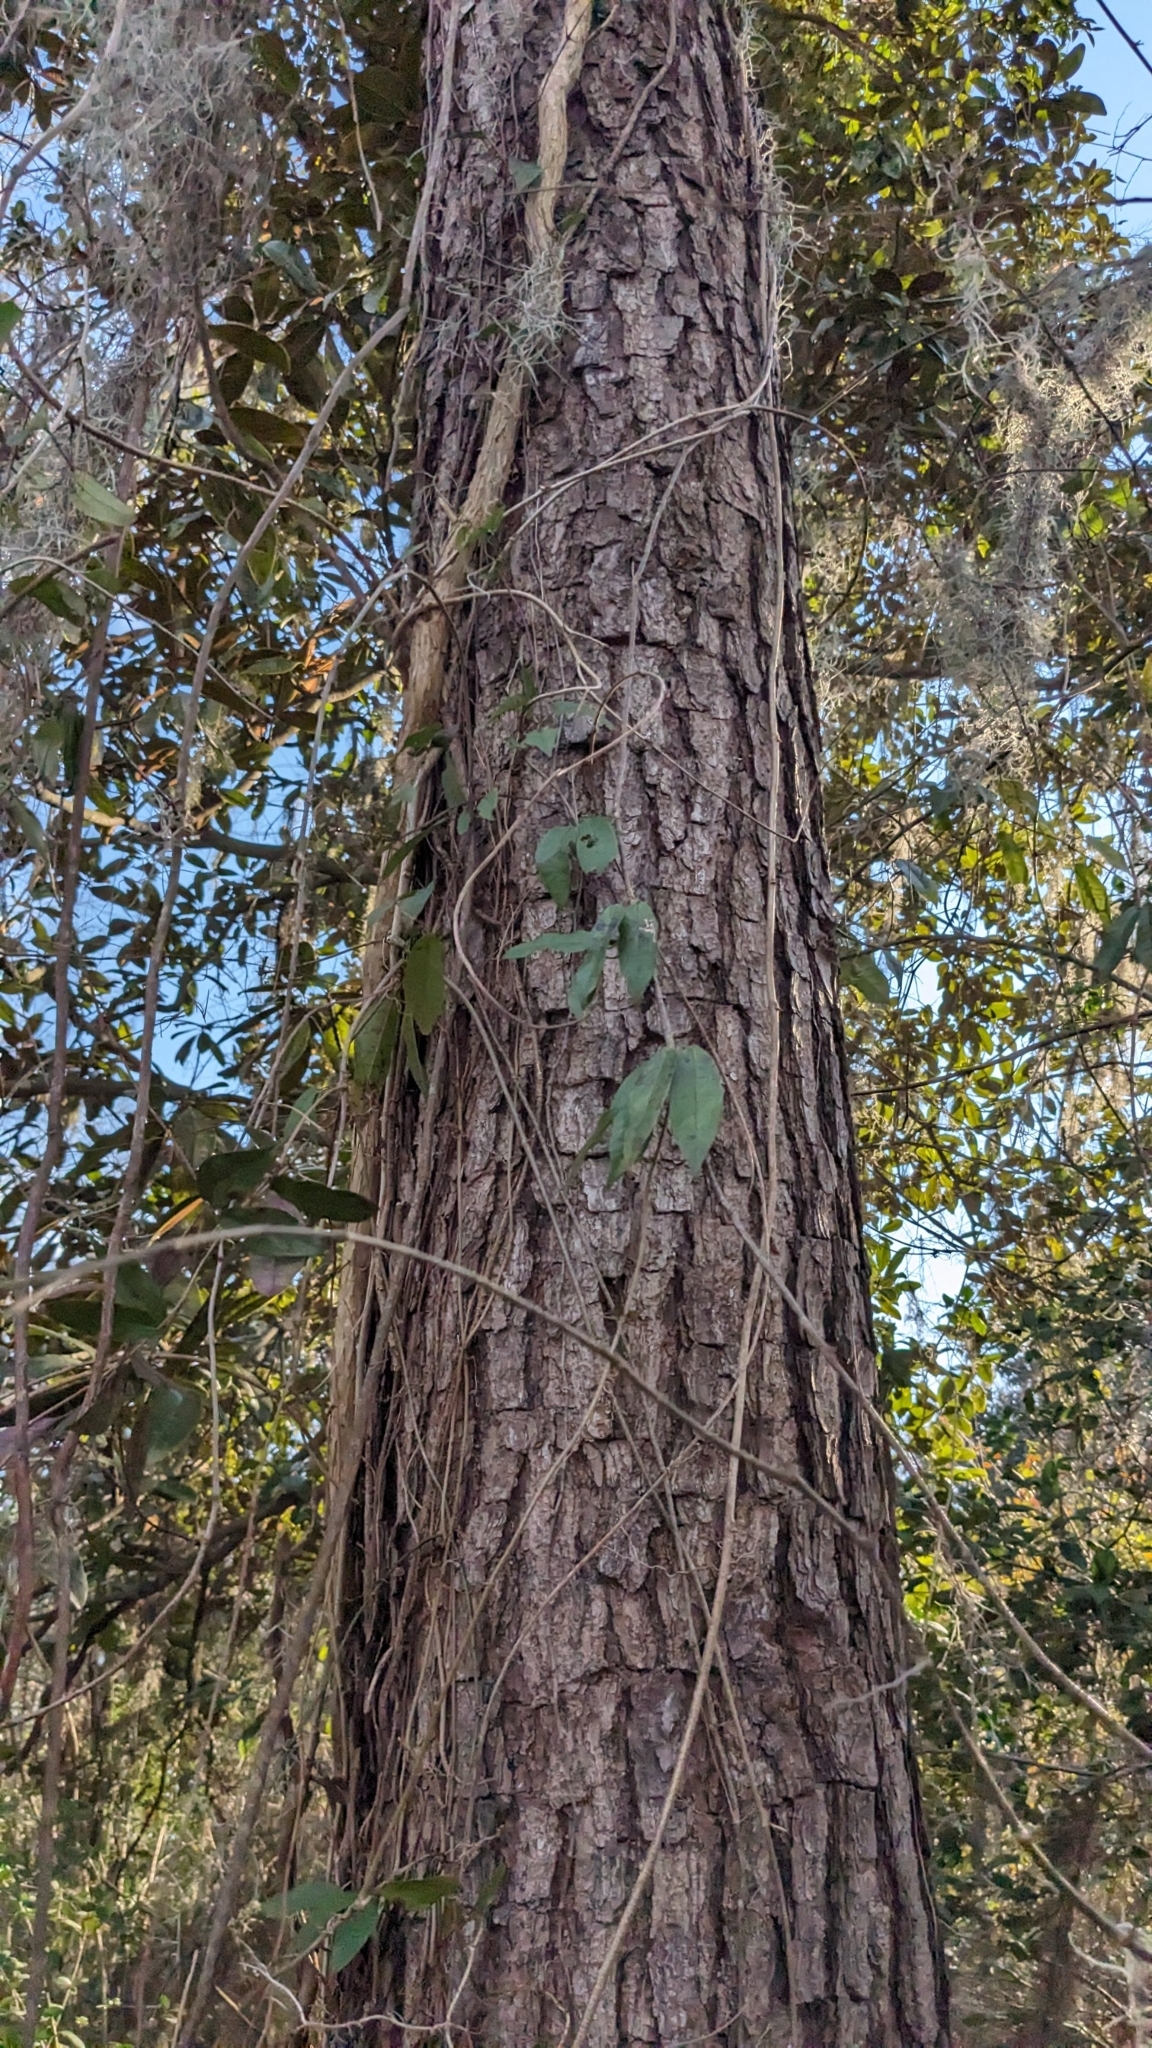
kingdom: Plantae
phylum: Tracheophyta
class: Magnoliopsida
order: Lamiales
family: Bignoniaceae
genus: Bignonia
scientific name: Bignonia capreolata
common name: Crossvine
